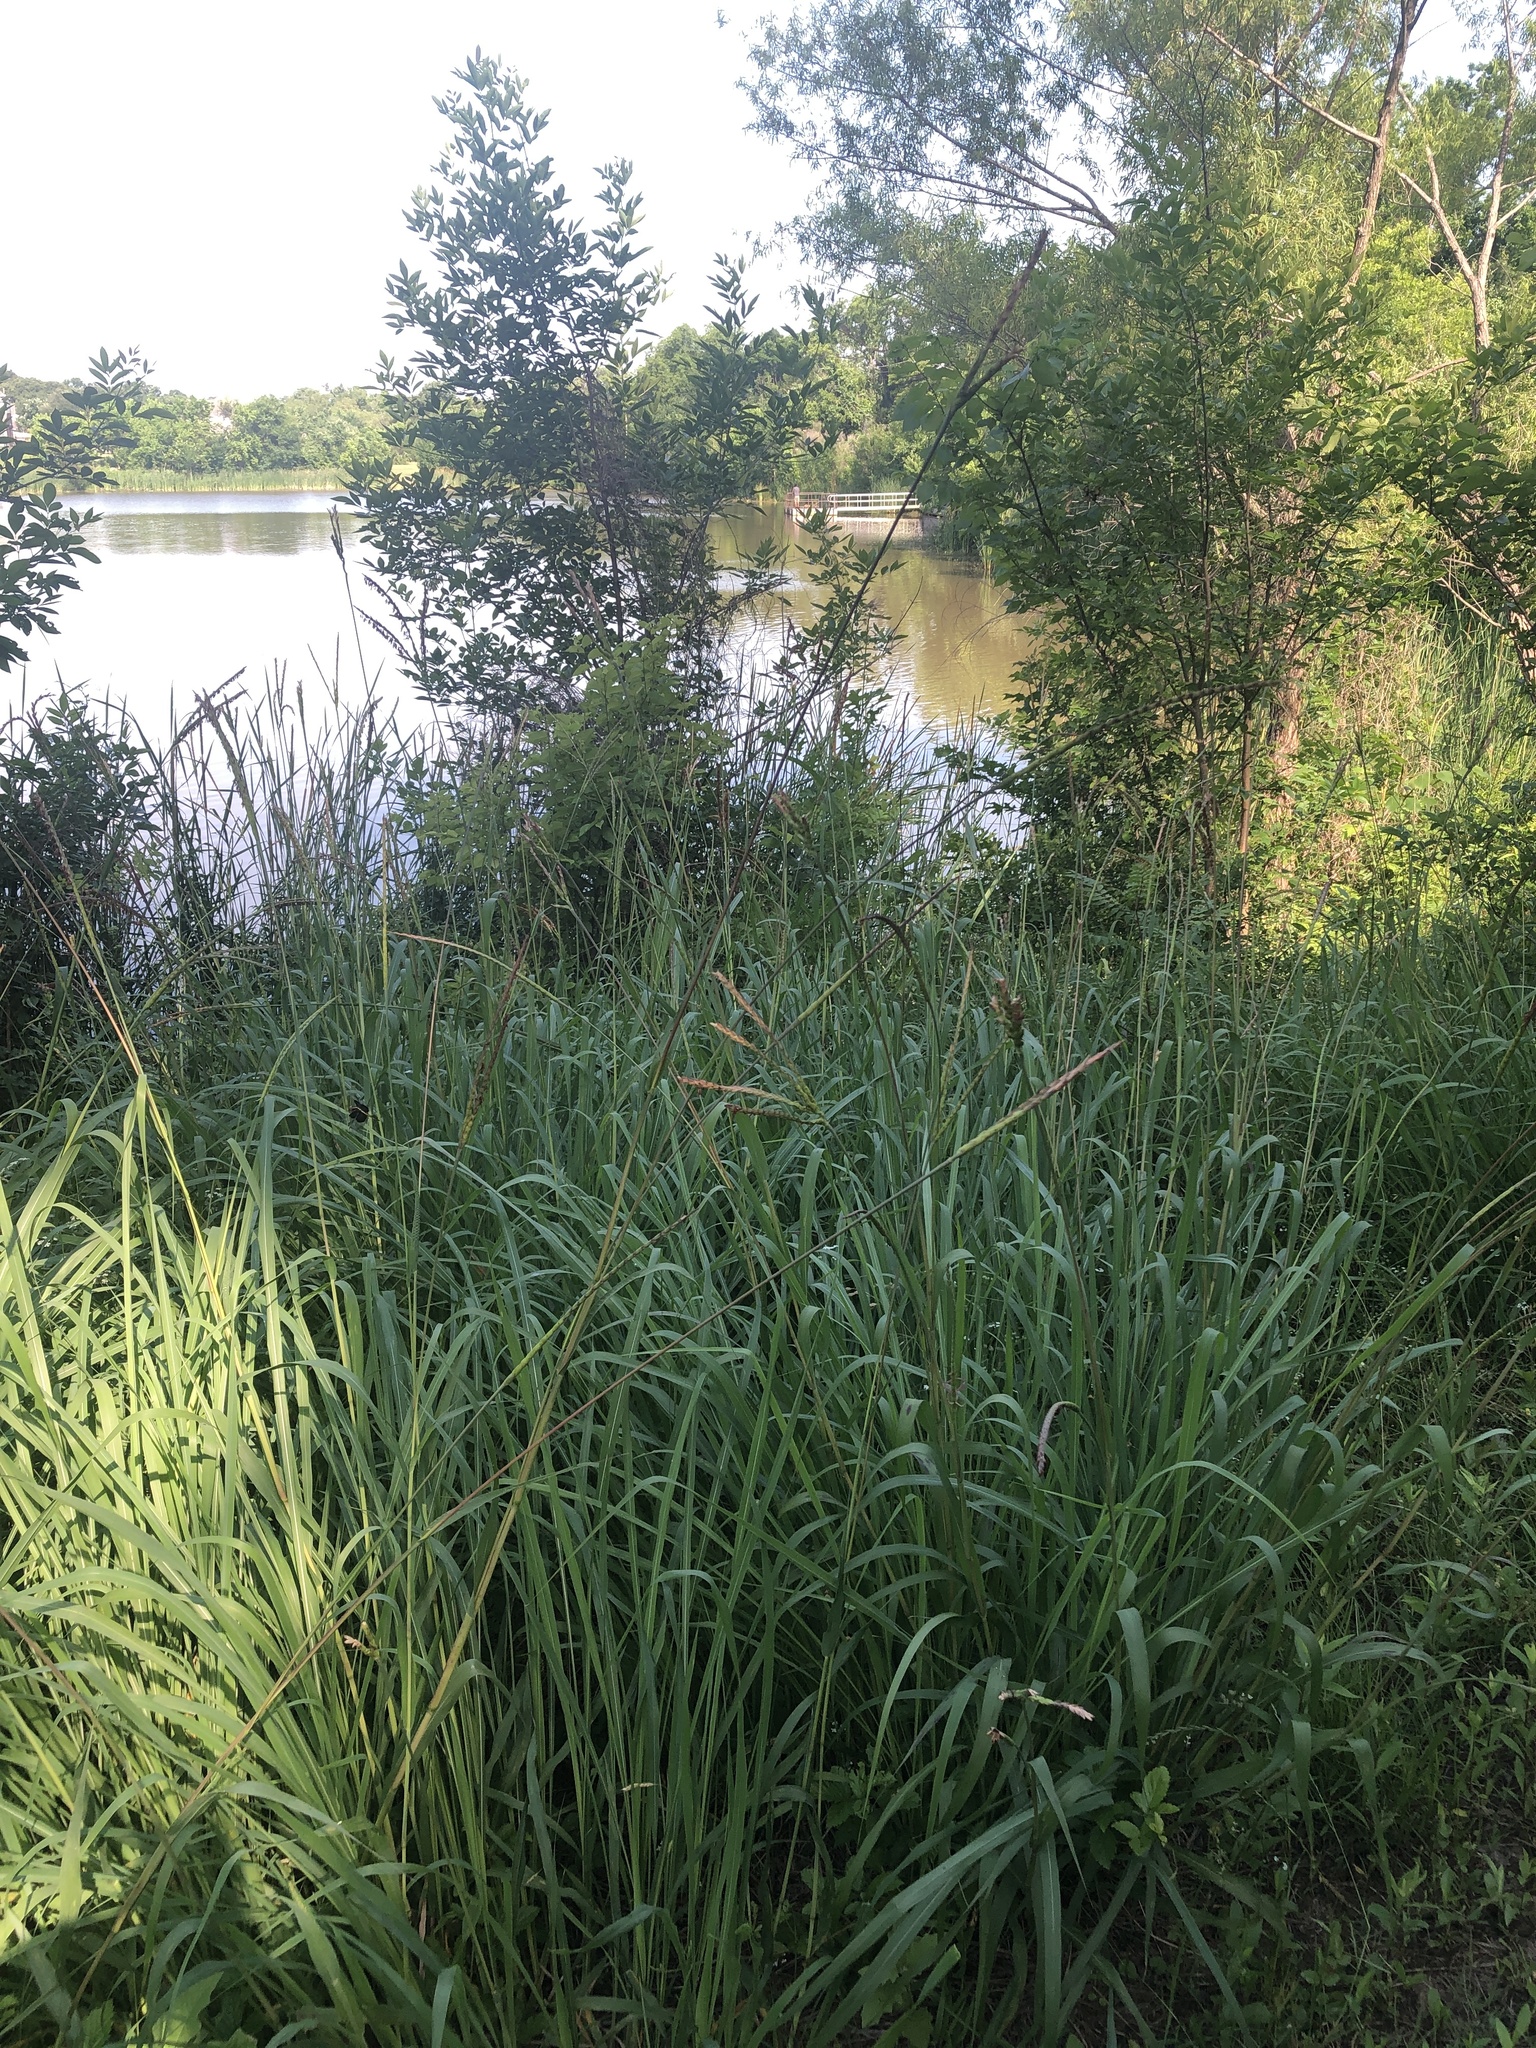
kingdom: Plantae
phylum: Tracheophyta
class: Liliopsida
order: Poales
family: Poaceae
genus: Tripsacum
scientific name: Tripsacum dactyloides
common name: Buffalo-grass
